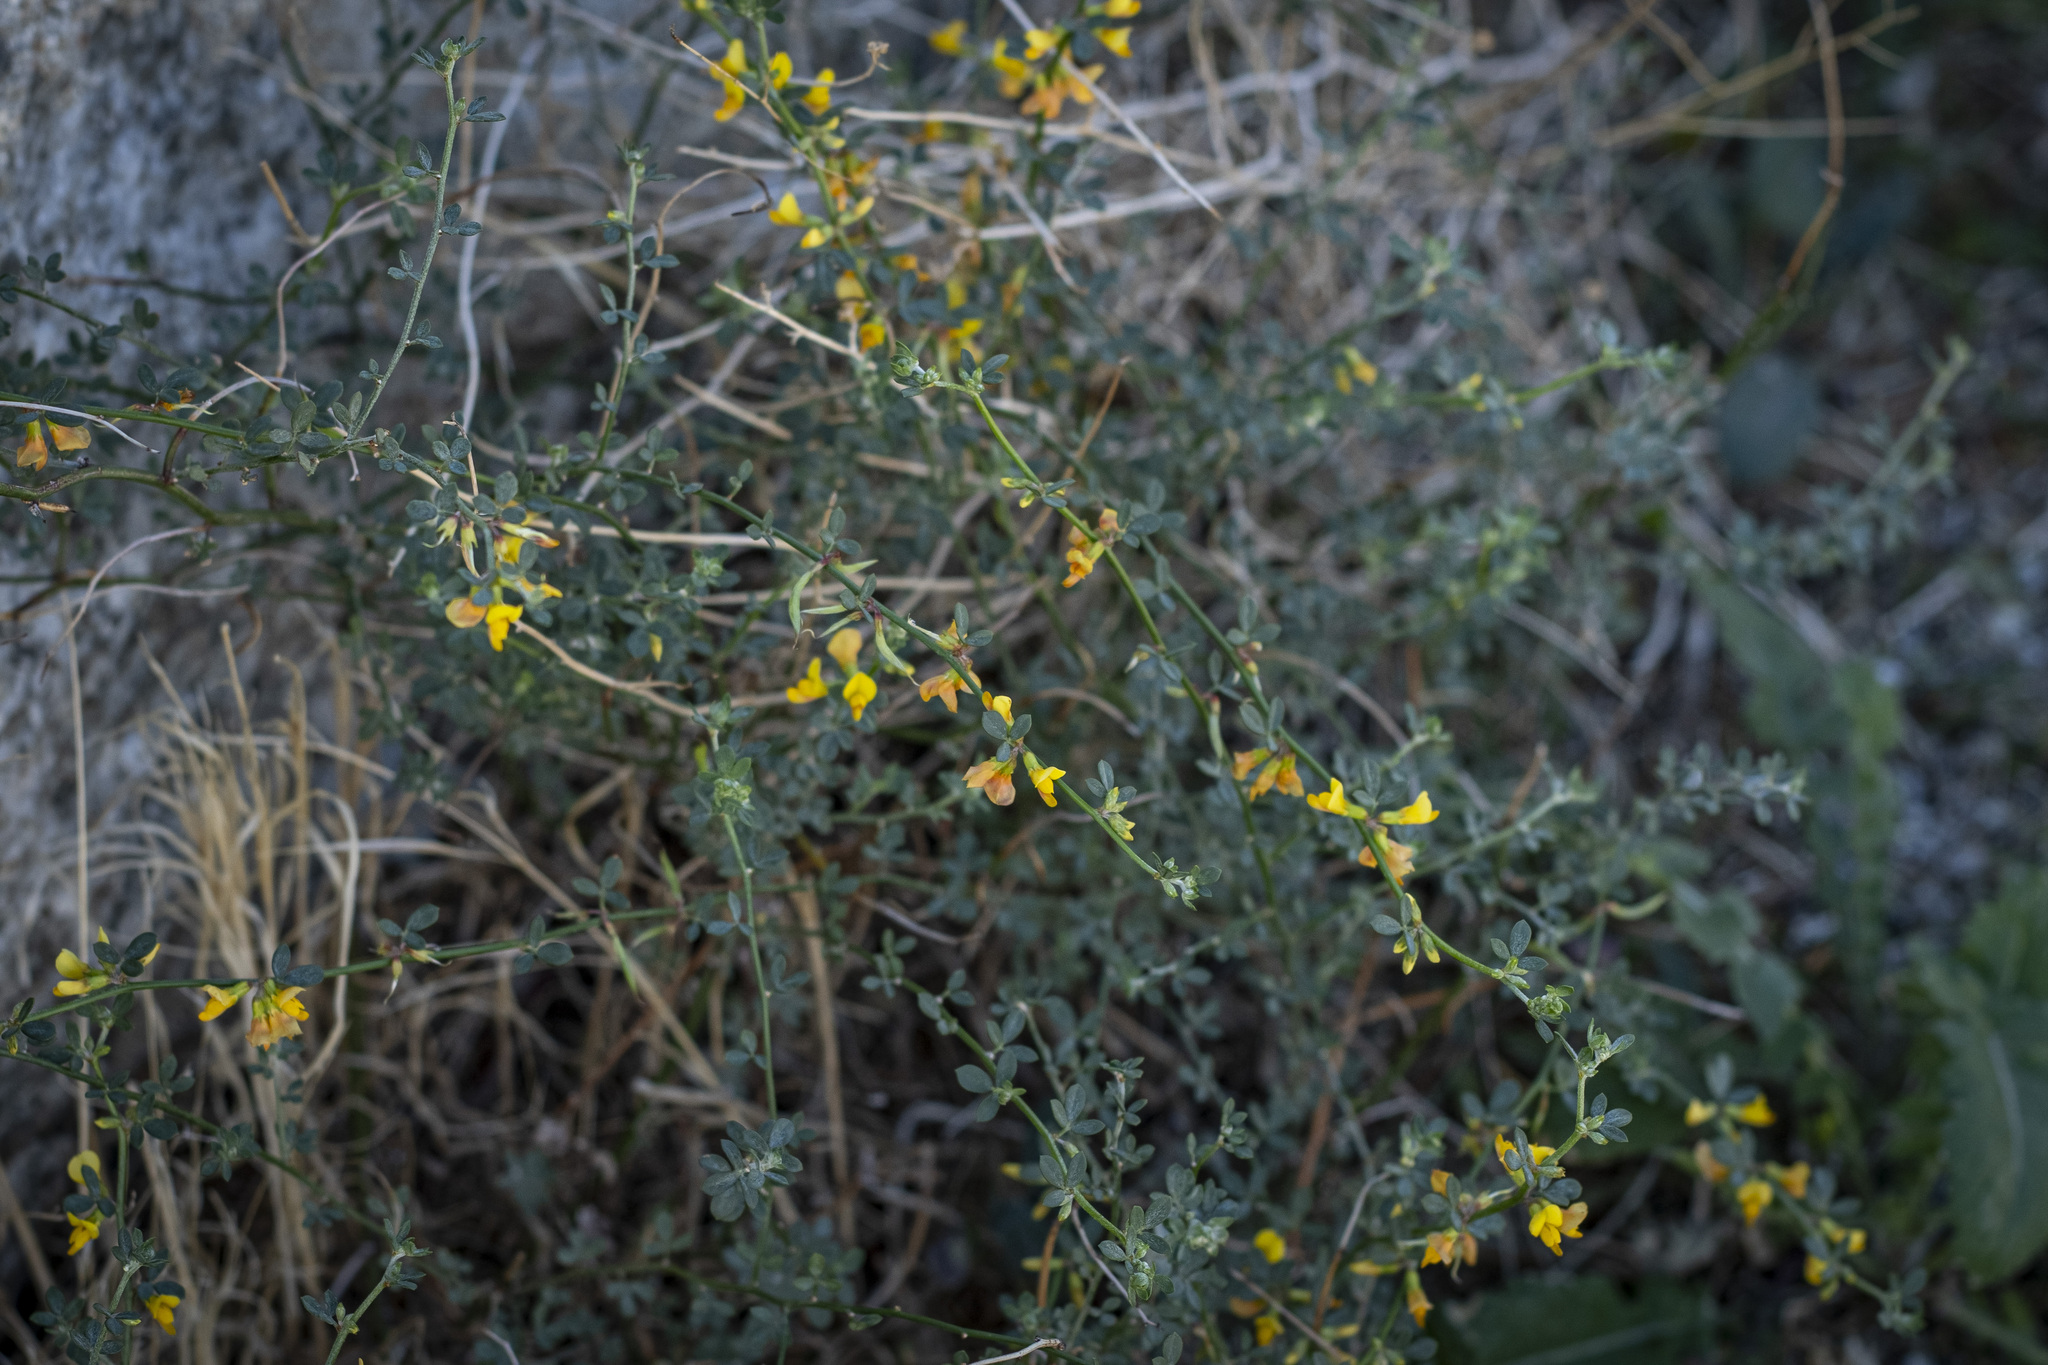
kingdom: Plantae
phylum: Tracheophyta
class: Magnoliopsida
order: Fabales
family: Fabaceae
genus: Acmispon
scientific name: Acmispon glaber
